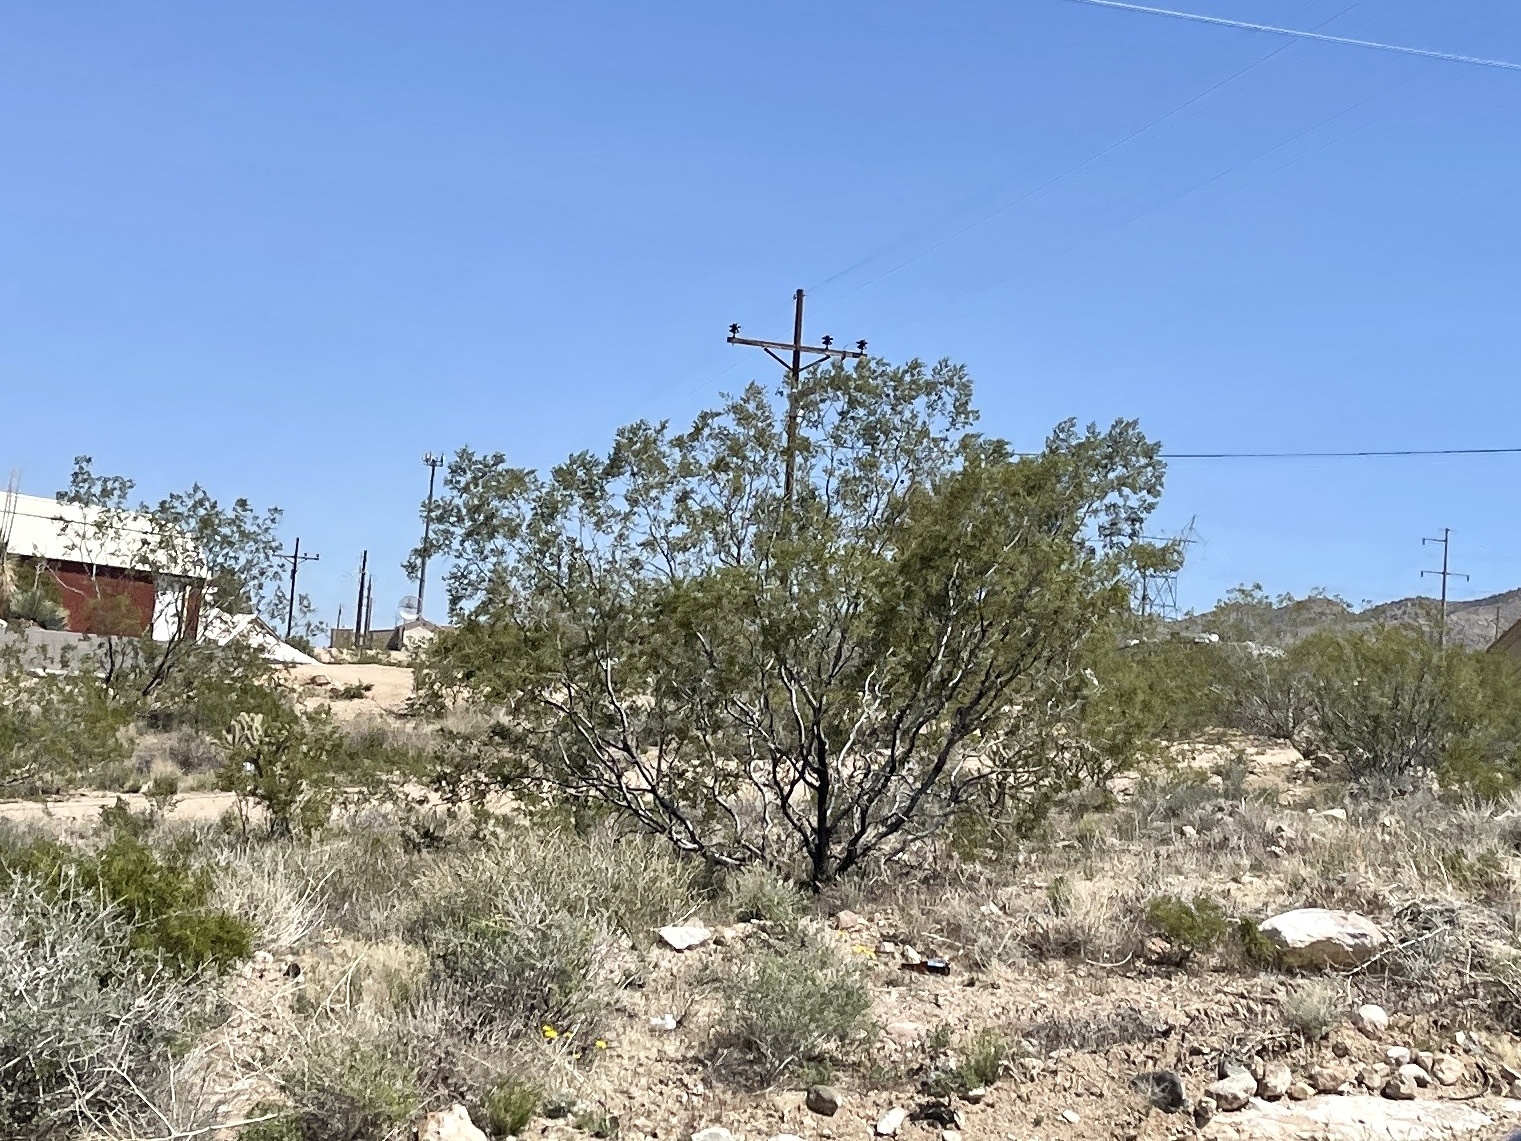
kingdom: Plantae
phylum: Tracheophyta
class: Magnoliopsida
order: Zygophyllales
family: Zygophyllaceae
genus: Larrea
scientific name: Larrea tridentata
